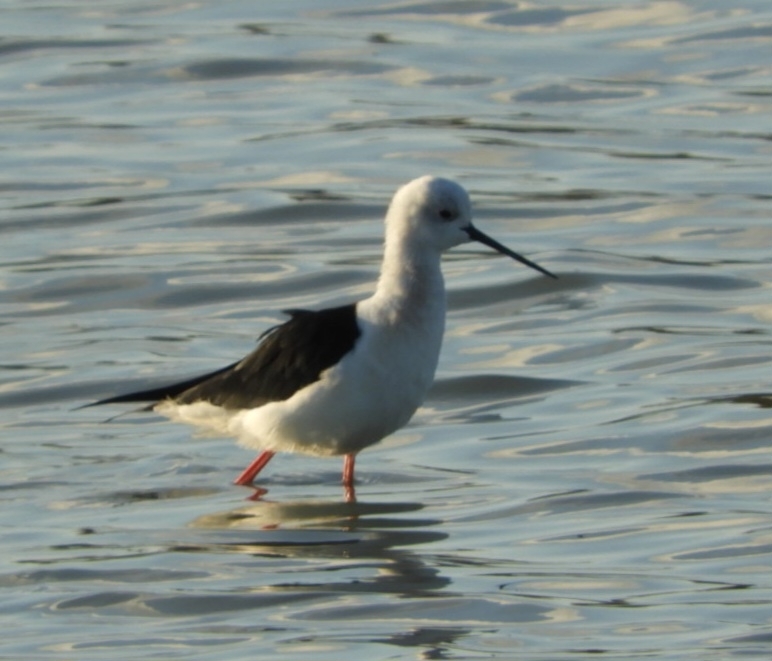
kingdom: Animalia
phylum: Chordata
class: Aves
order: Charadriiformes
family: Recurvirostridae
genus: Himantopus
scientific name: Himantopus himantopus
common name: Black-winged stilt
